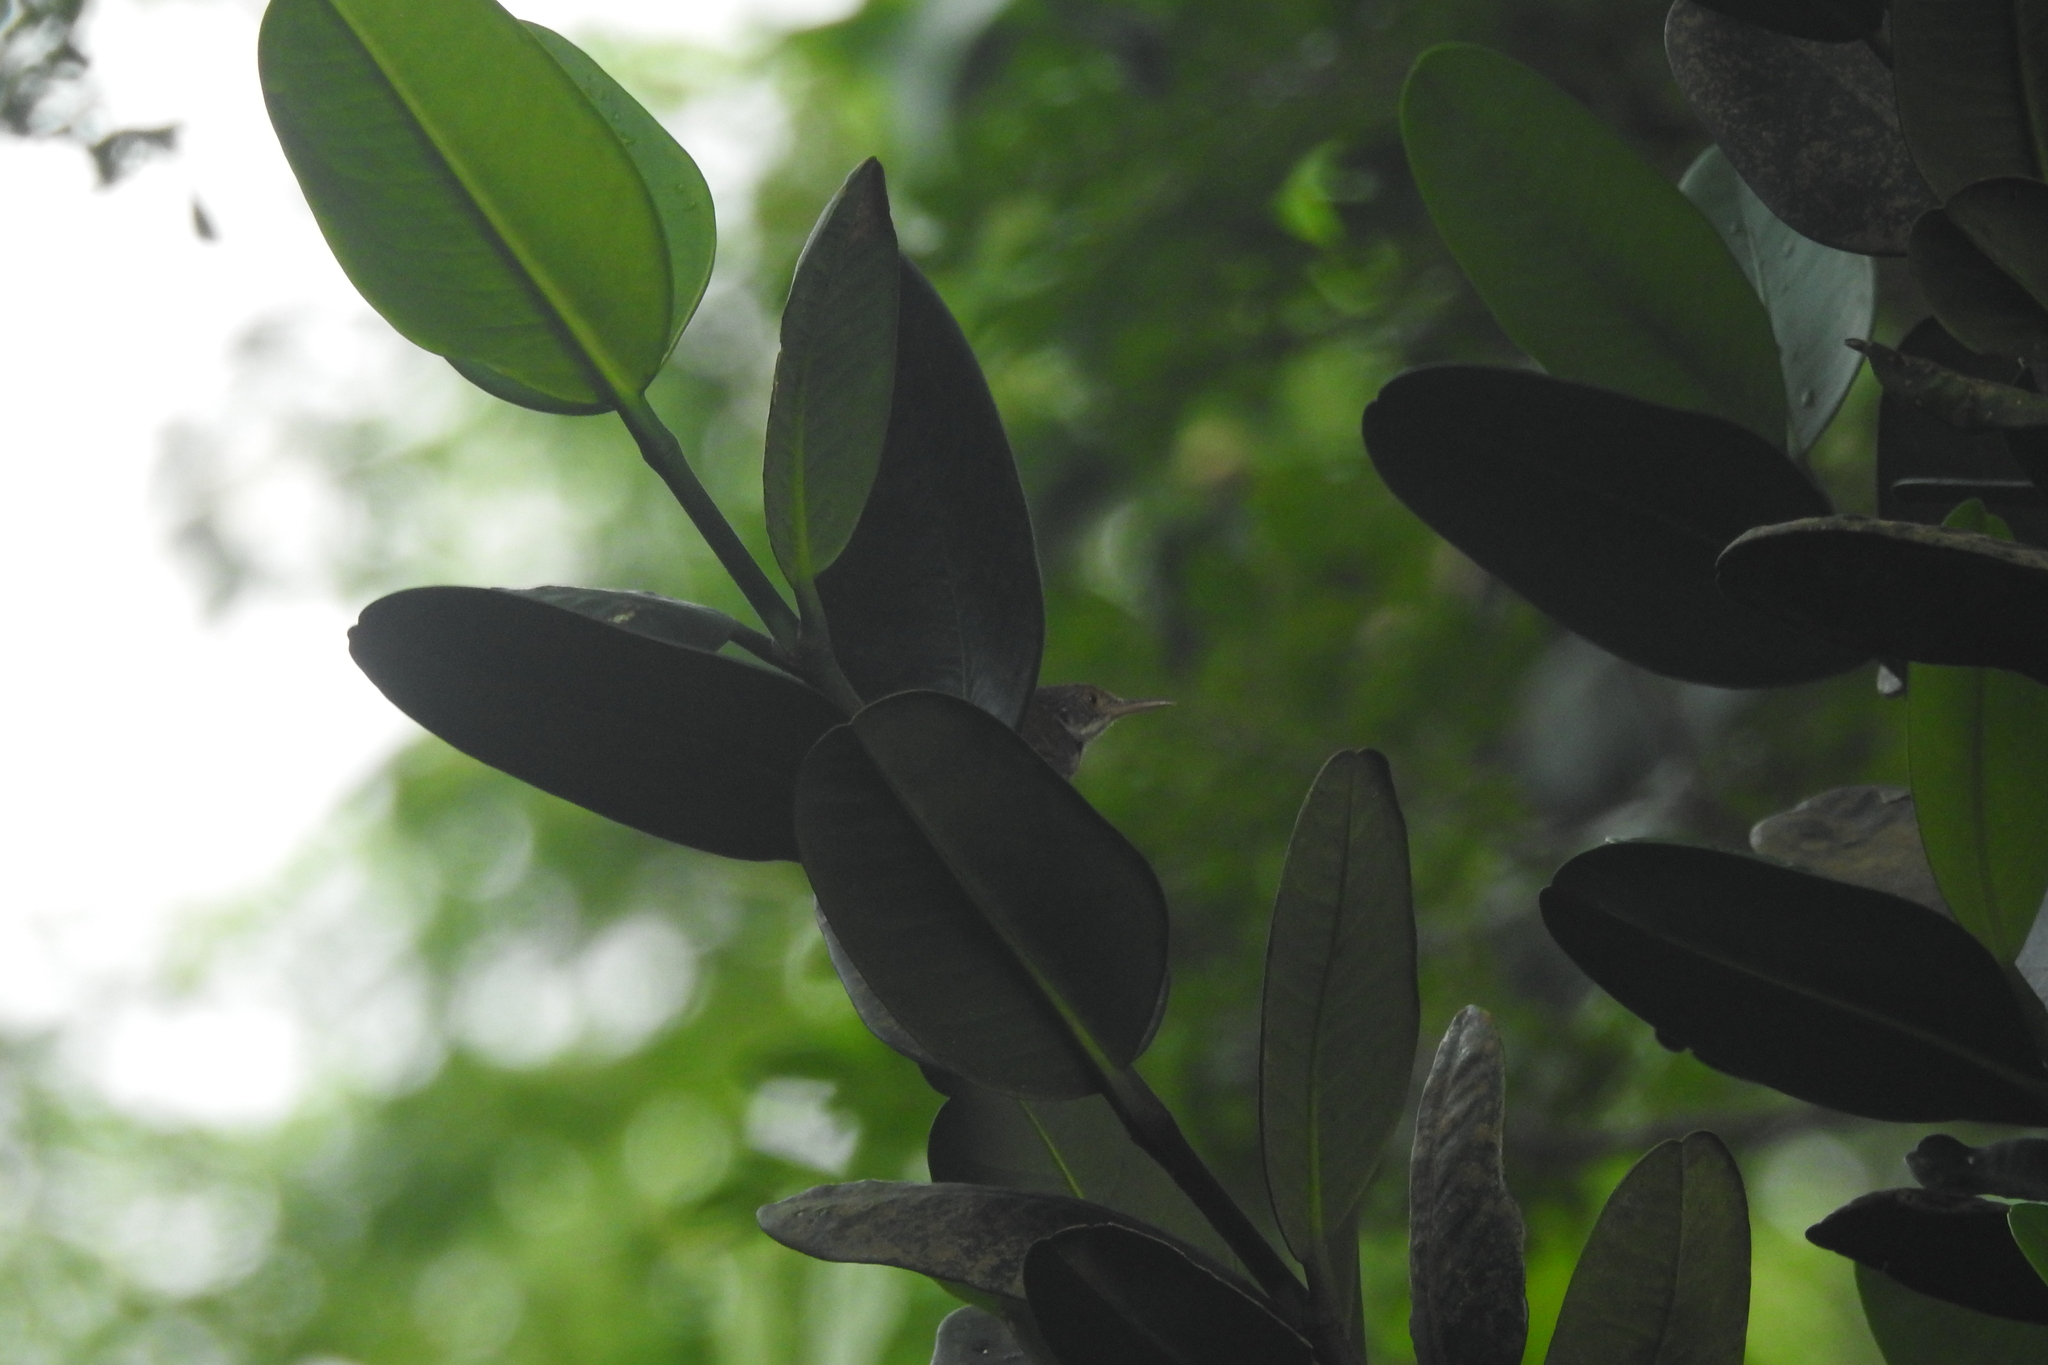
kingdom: Animalia
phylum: Chordata
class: Aves
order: Passeriformes
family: Cisticolidae
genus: Orthotomus
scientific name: Orthotomus sutorius
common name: Common tailorbird
